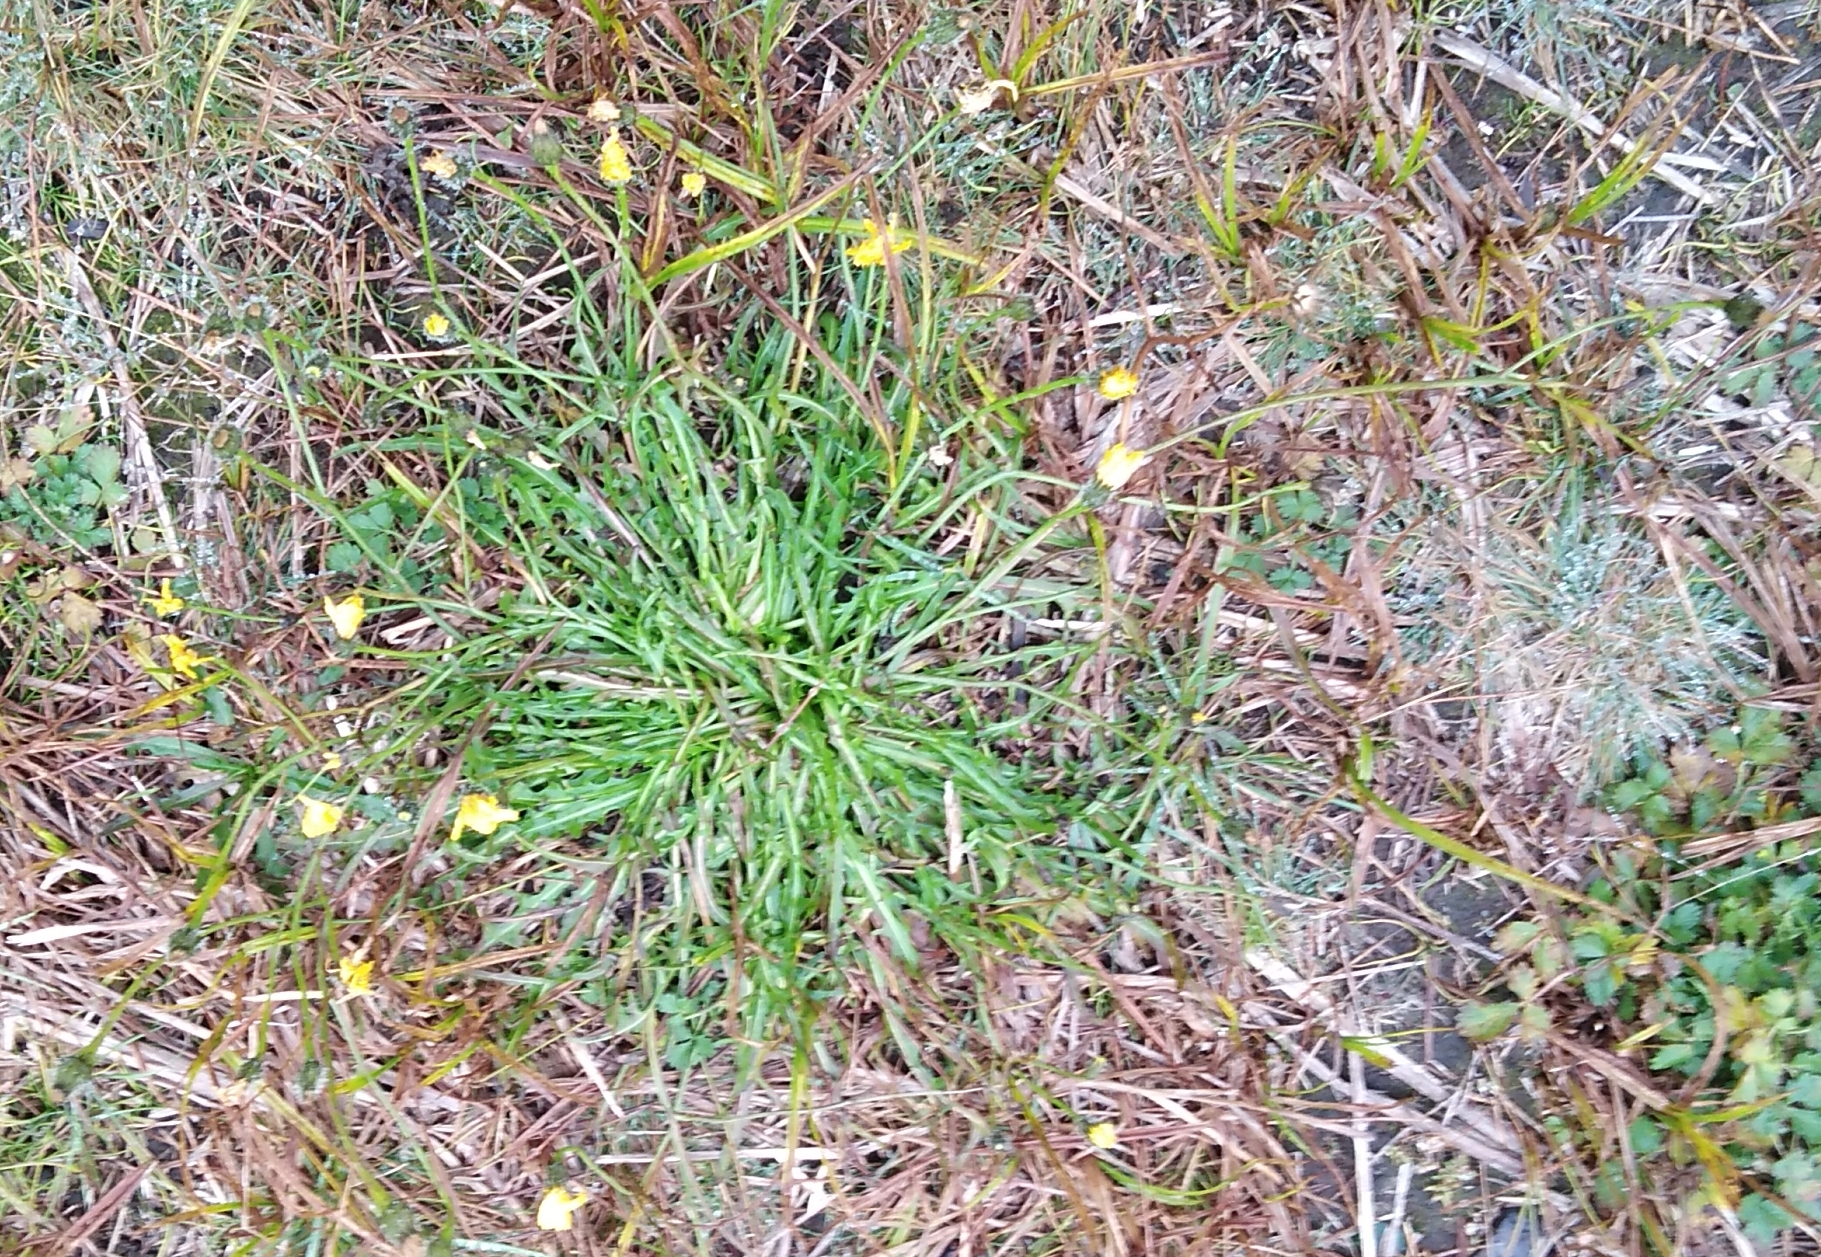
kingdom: Plantae
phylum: Tracheophyta
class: Magnoliopsida
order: Asterales
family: Asteraceae
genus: Scorzoneroides
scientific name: Scorzoneroides autumnalis
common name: Autumn hawkbit
